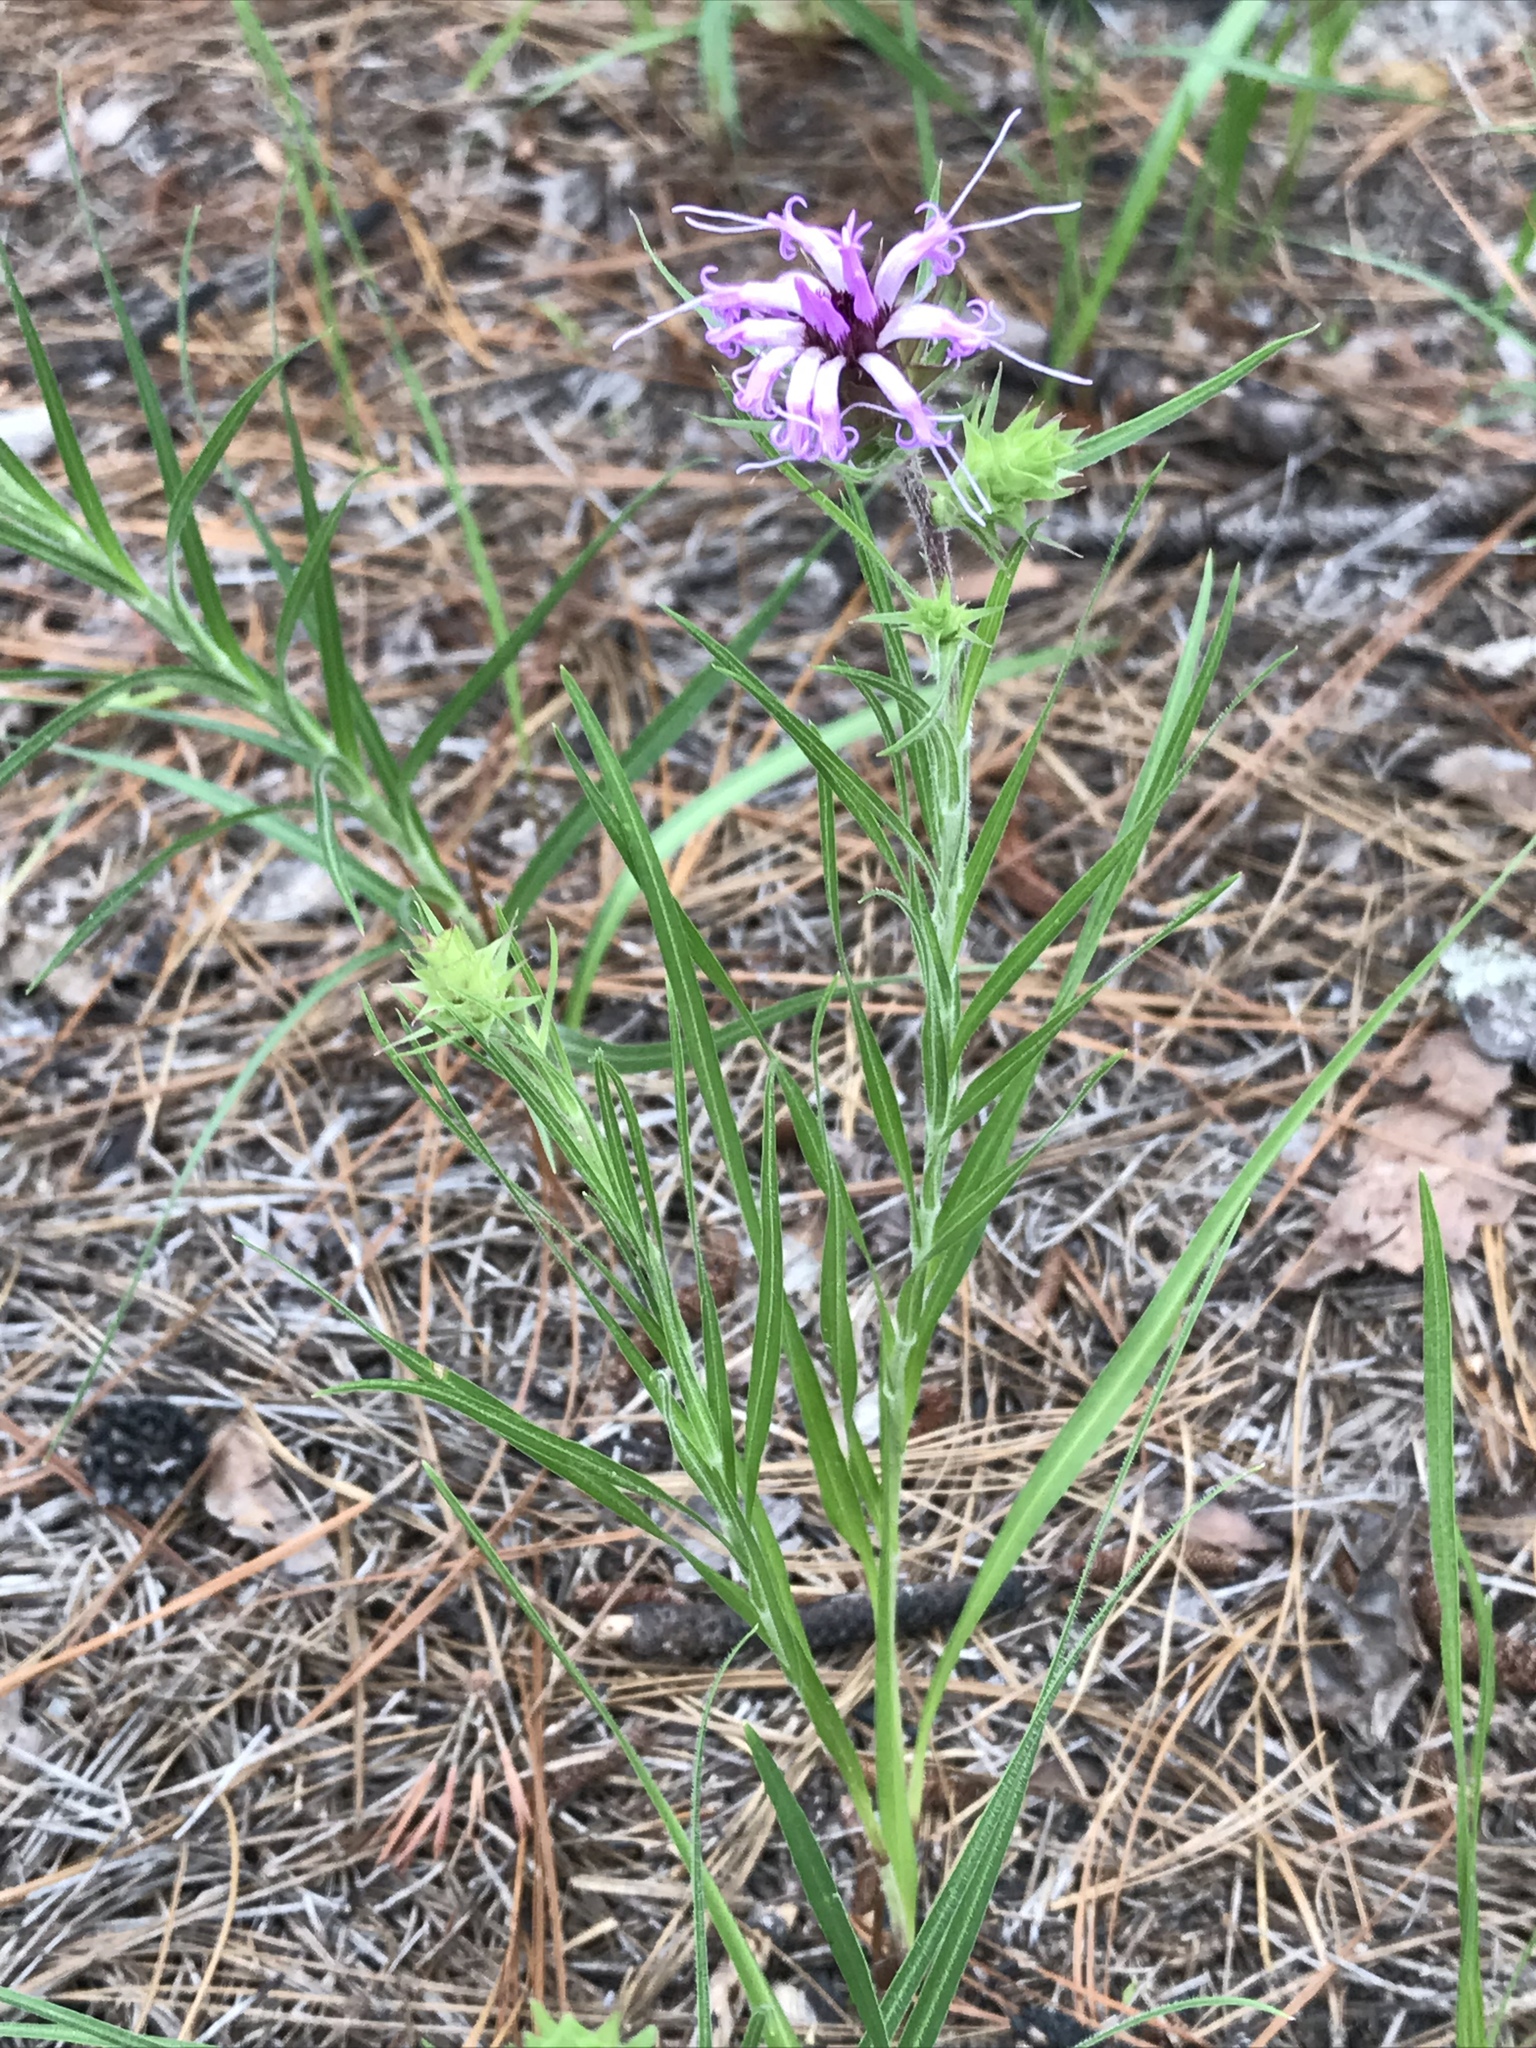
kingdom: Plantae
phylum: Tracheophyta
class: Magnoliopsida
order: Asterales
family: Asteraceae
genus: Liatris
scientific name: Liatris squarrosa
